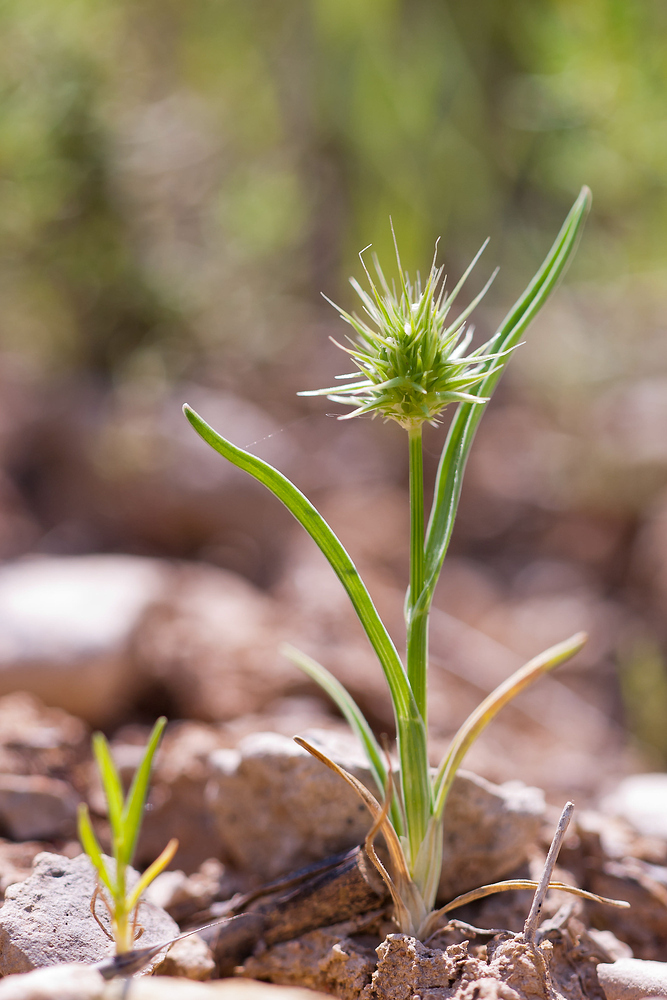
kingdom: Plantae
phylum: Tracheophyta
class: Liliopsida
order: Poales
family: Poaceae
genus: Echinaria
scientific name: Echinaria capitata
